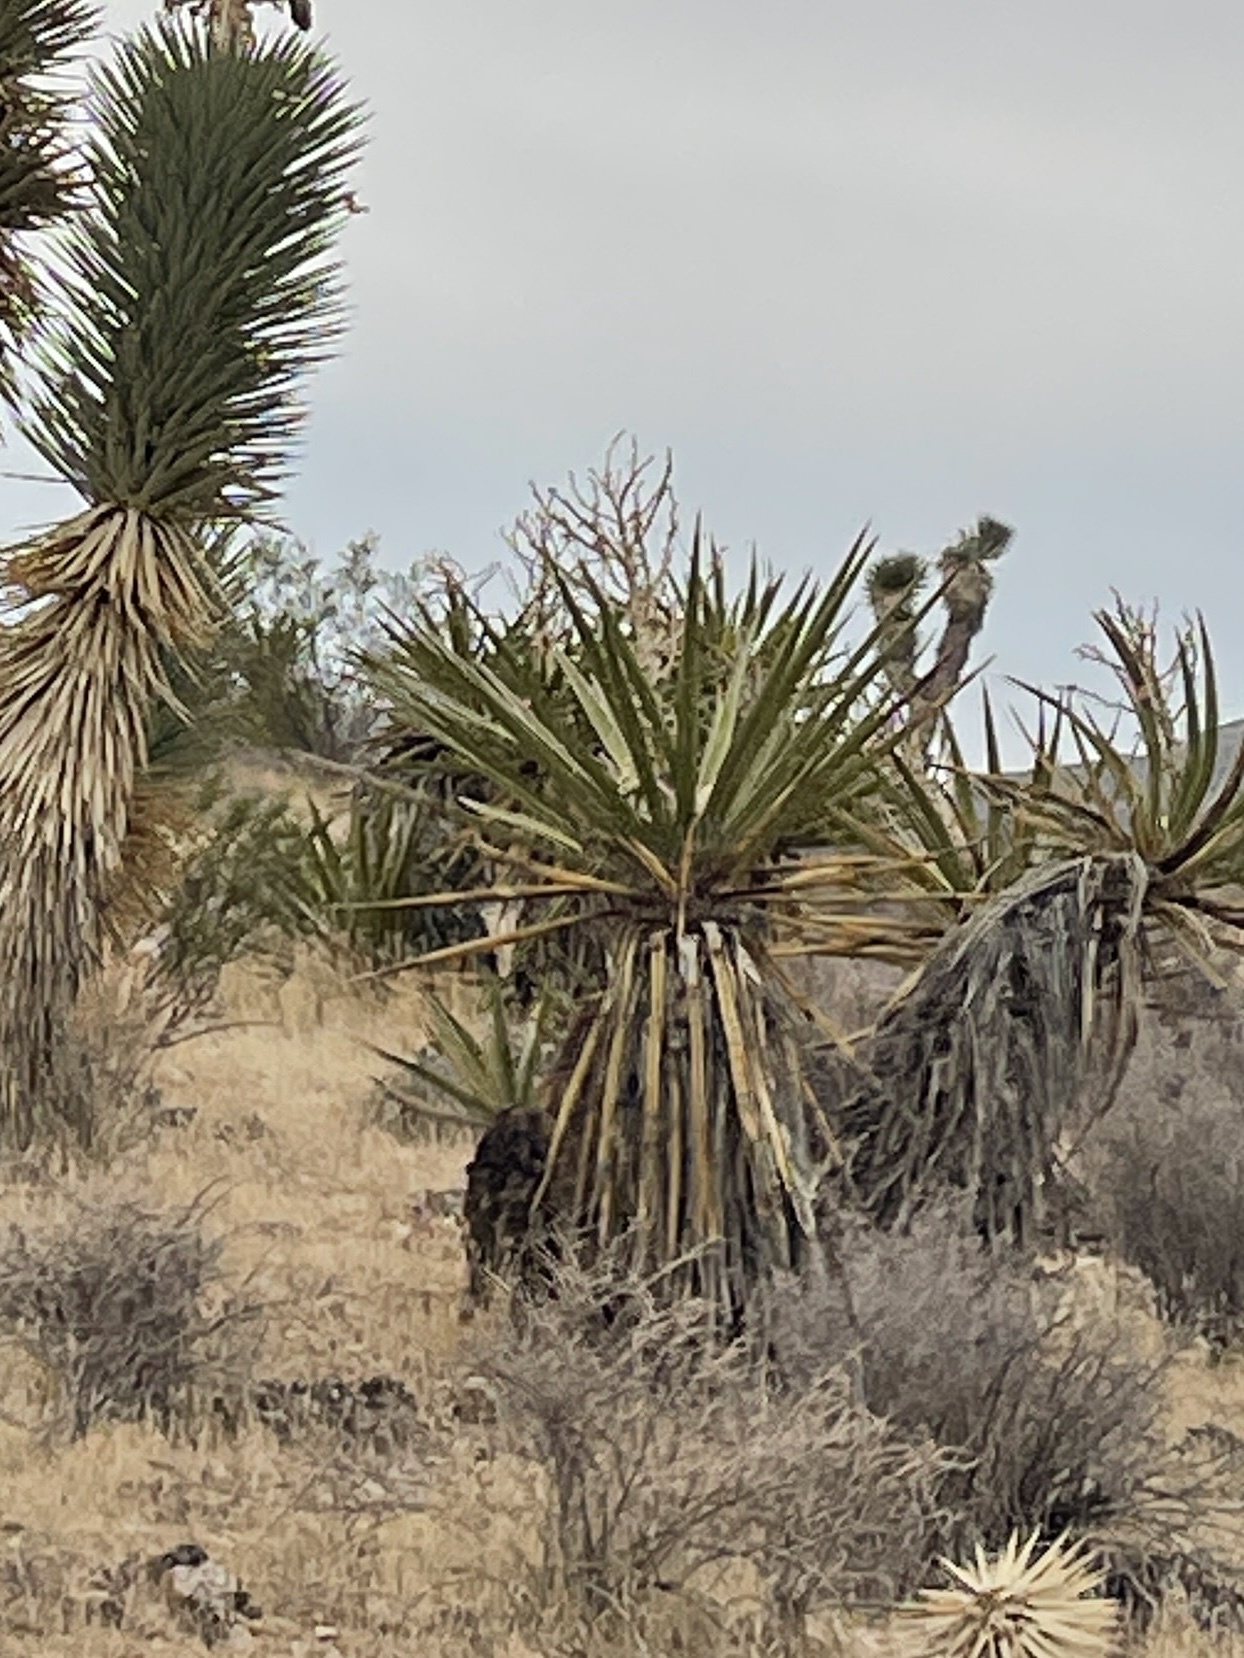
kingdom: Plantae
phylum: Tracheophyta
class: Liliopsida
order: Asparagales
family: Asparagaceae
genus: Yucca
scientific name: Yucca schidigera
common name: Mojave yucca
